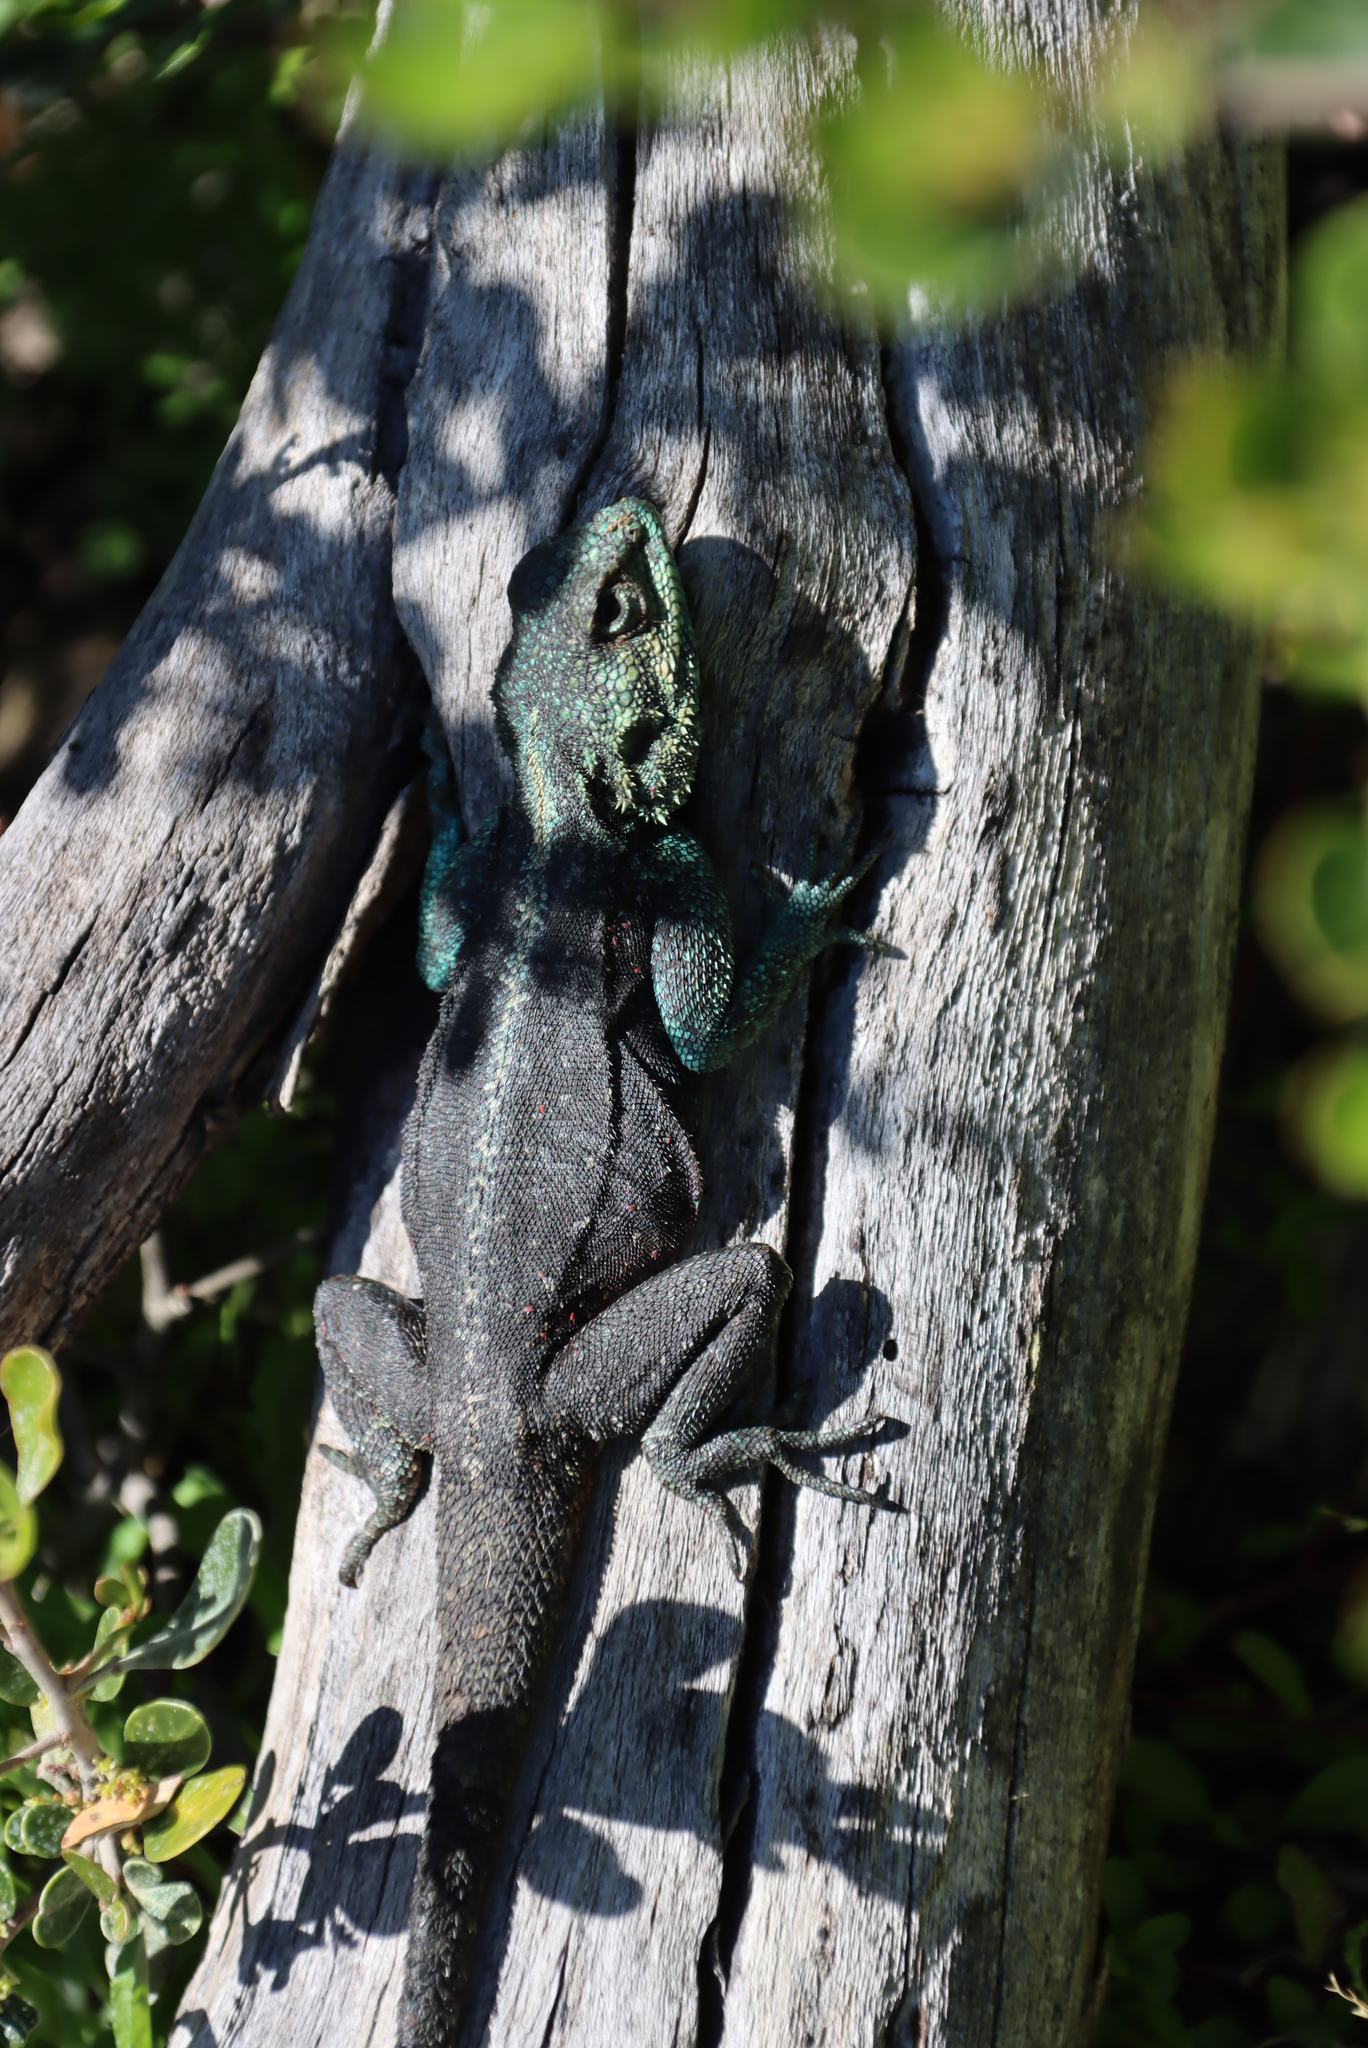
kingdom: Animalia
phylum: Chordata
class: Squamata
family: Agamidae
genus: Agama
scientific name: Agama atra
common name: Southern african rock agama
